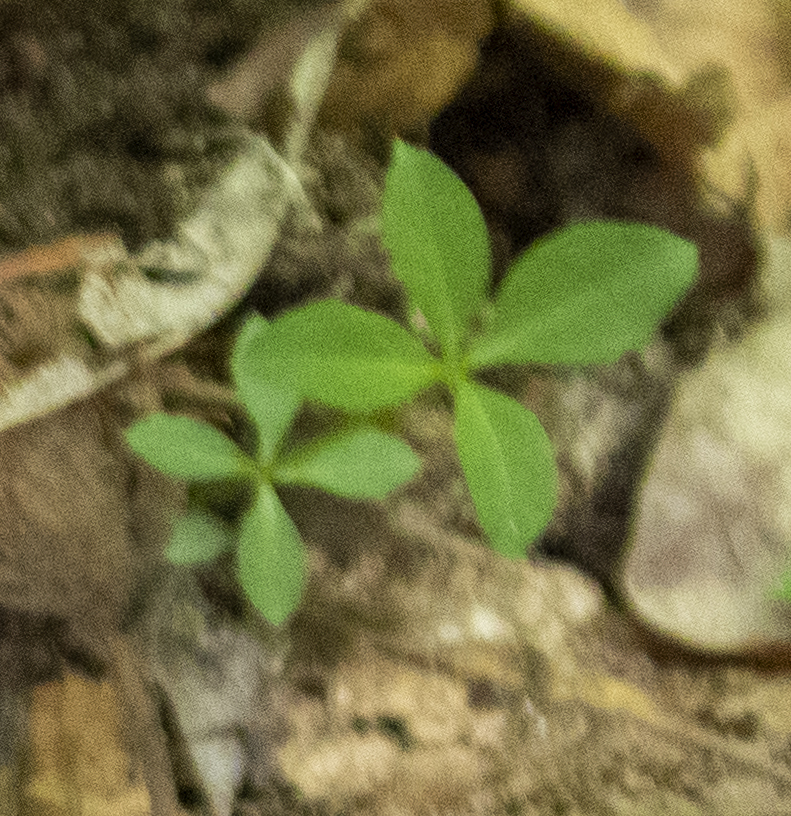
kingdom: Plantae
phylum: Tracheophyta
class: Magnoliopsida
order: Gentianales
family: Rubiaceae
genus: Galium
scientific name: Galium triflorum
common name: Fragrant bedstraw
